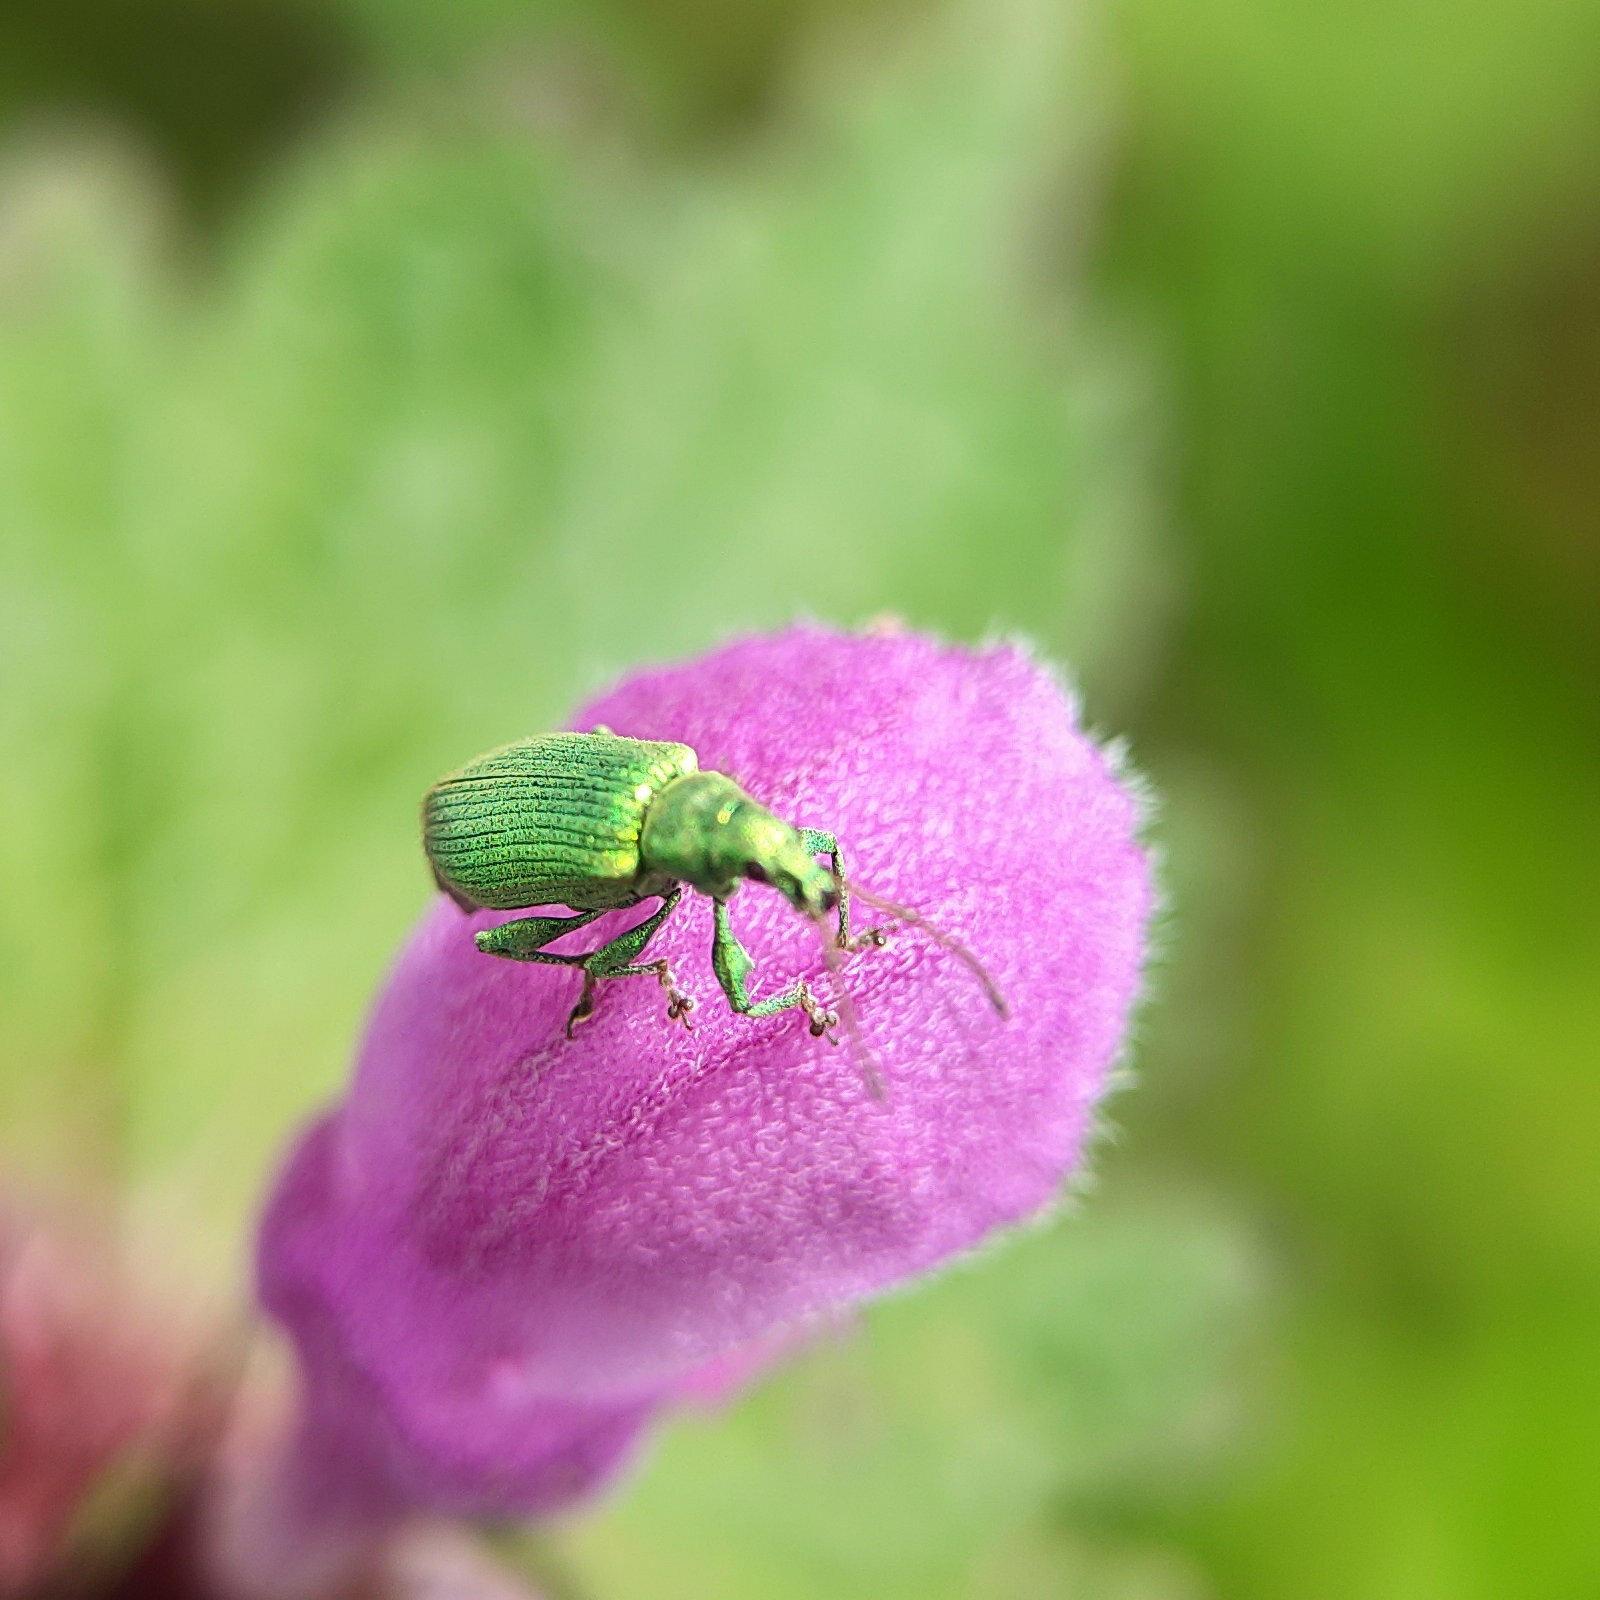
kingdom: Animalia
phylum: Arthropoda
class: Insecta
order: Coleoptera
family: Curculionidae
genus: Phyllobius
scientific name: Phyllobius maculicornis
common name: Green leaf weevil
